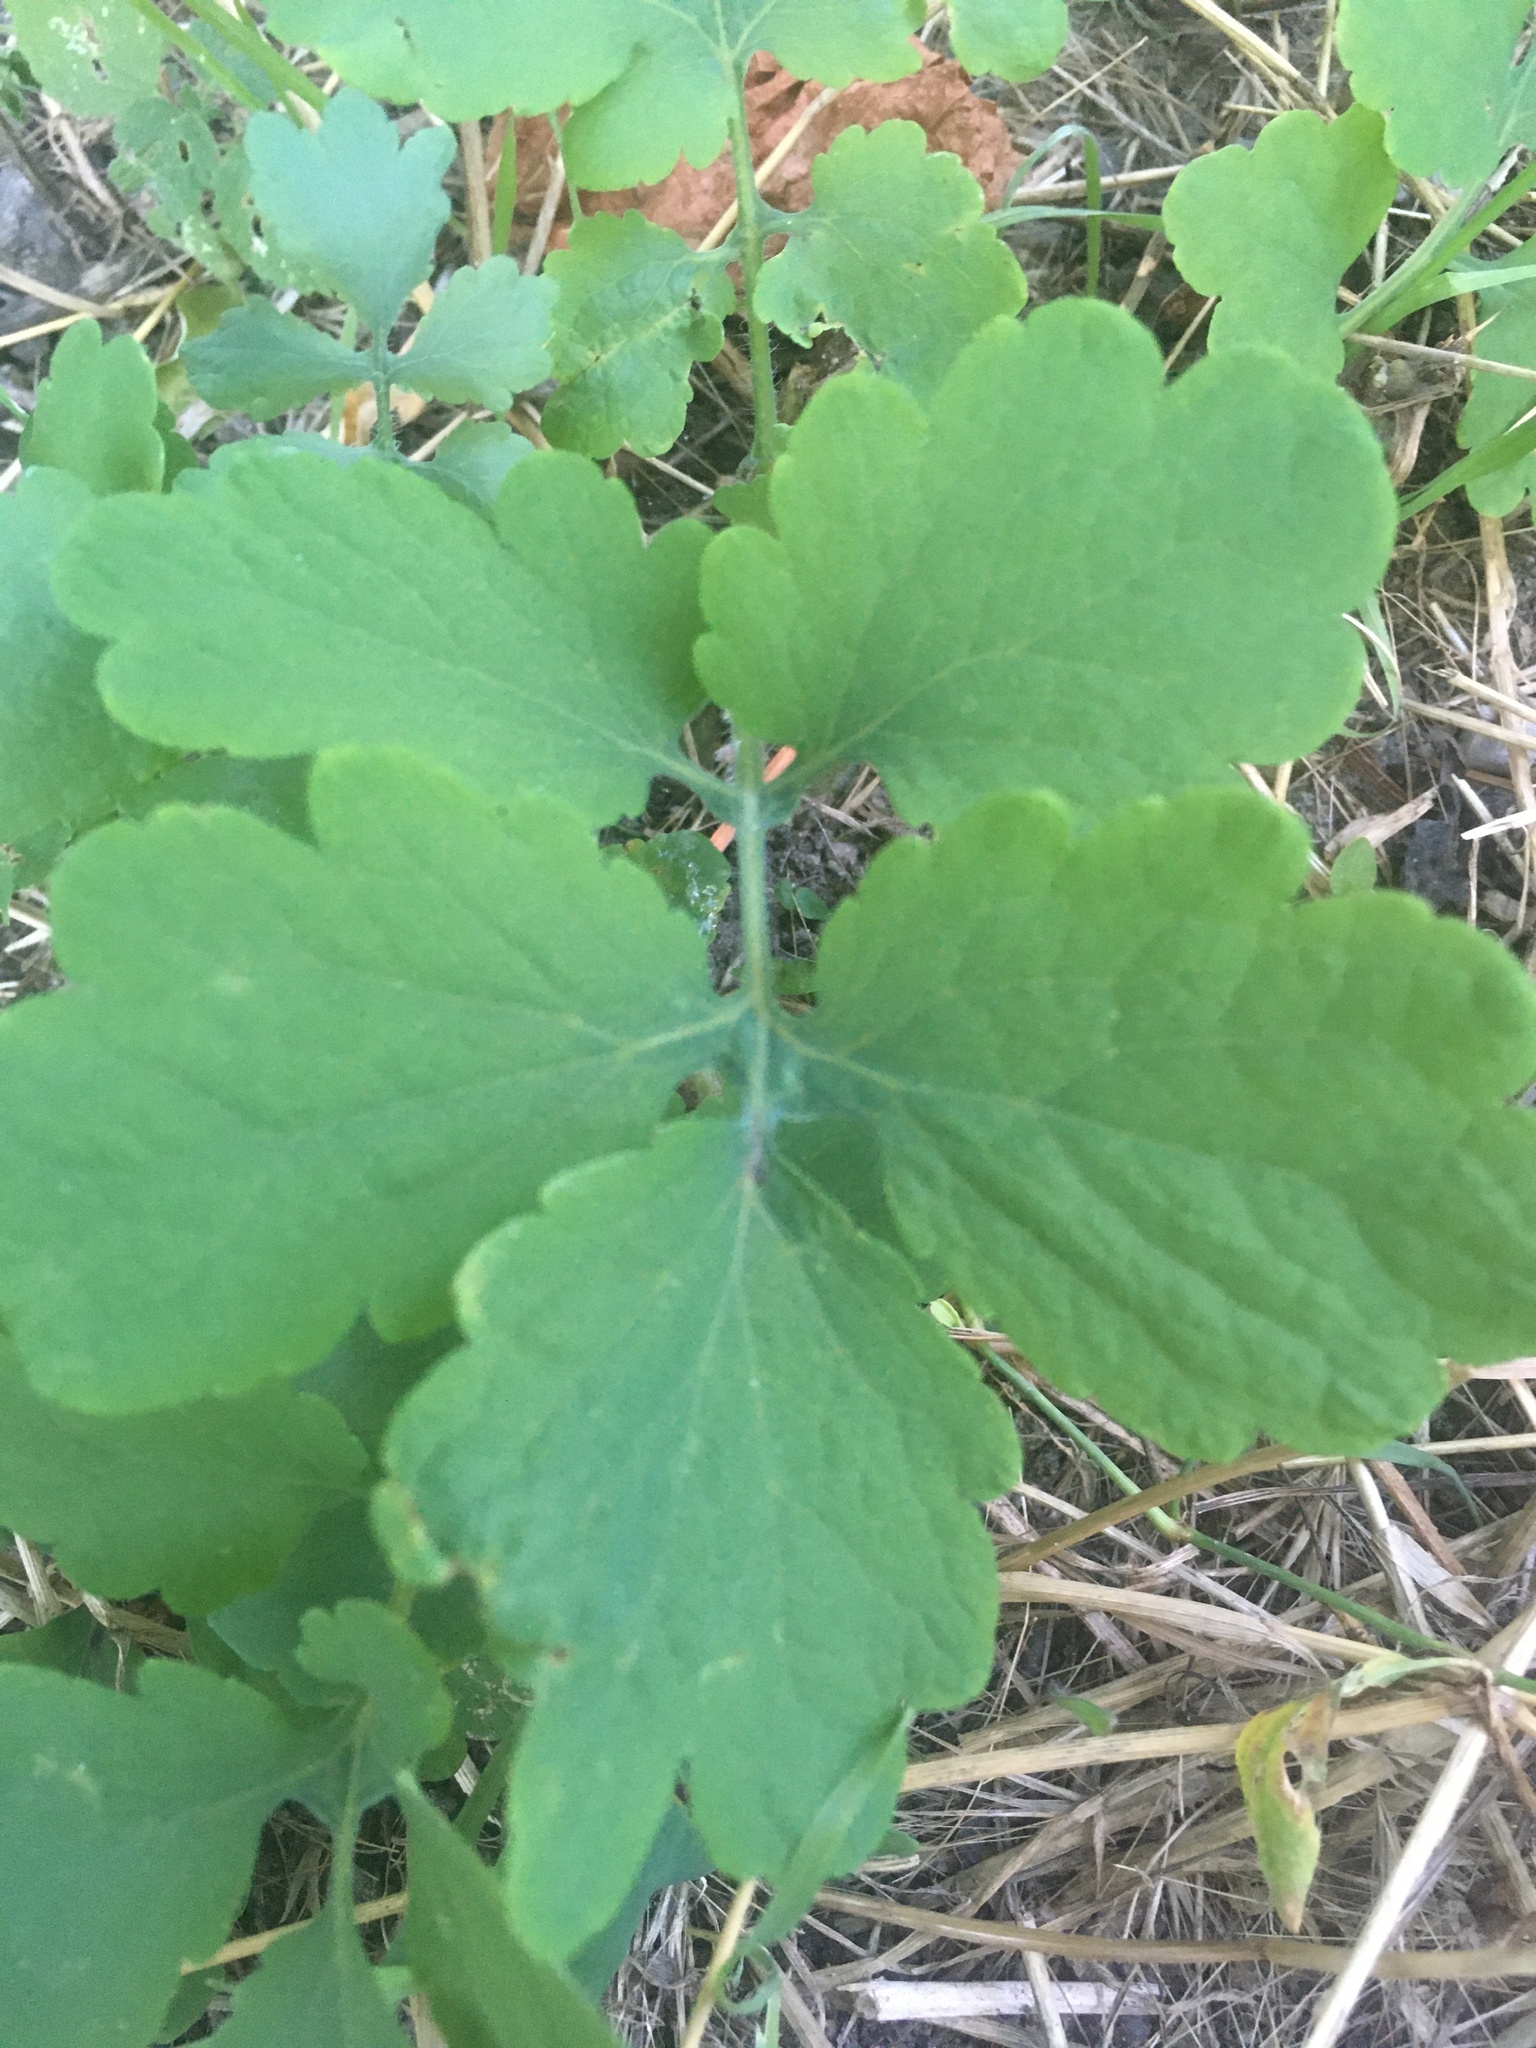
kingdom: Plantae
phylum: Tracheophyta
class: Magnoliopsida
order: Ranunculales
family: Papaveraceae
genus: Chelidonium
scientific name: Chelidonium majus
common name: Greater celandine
